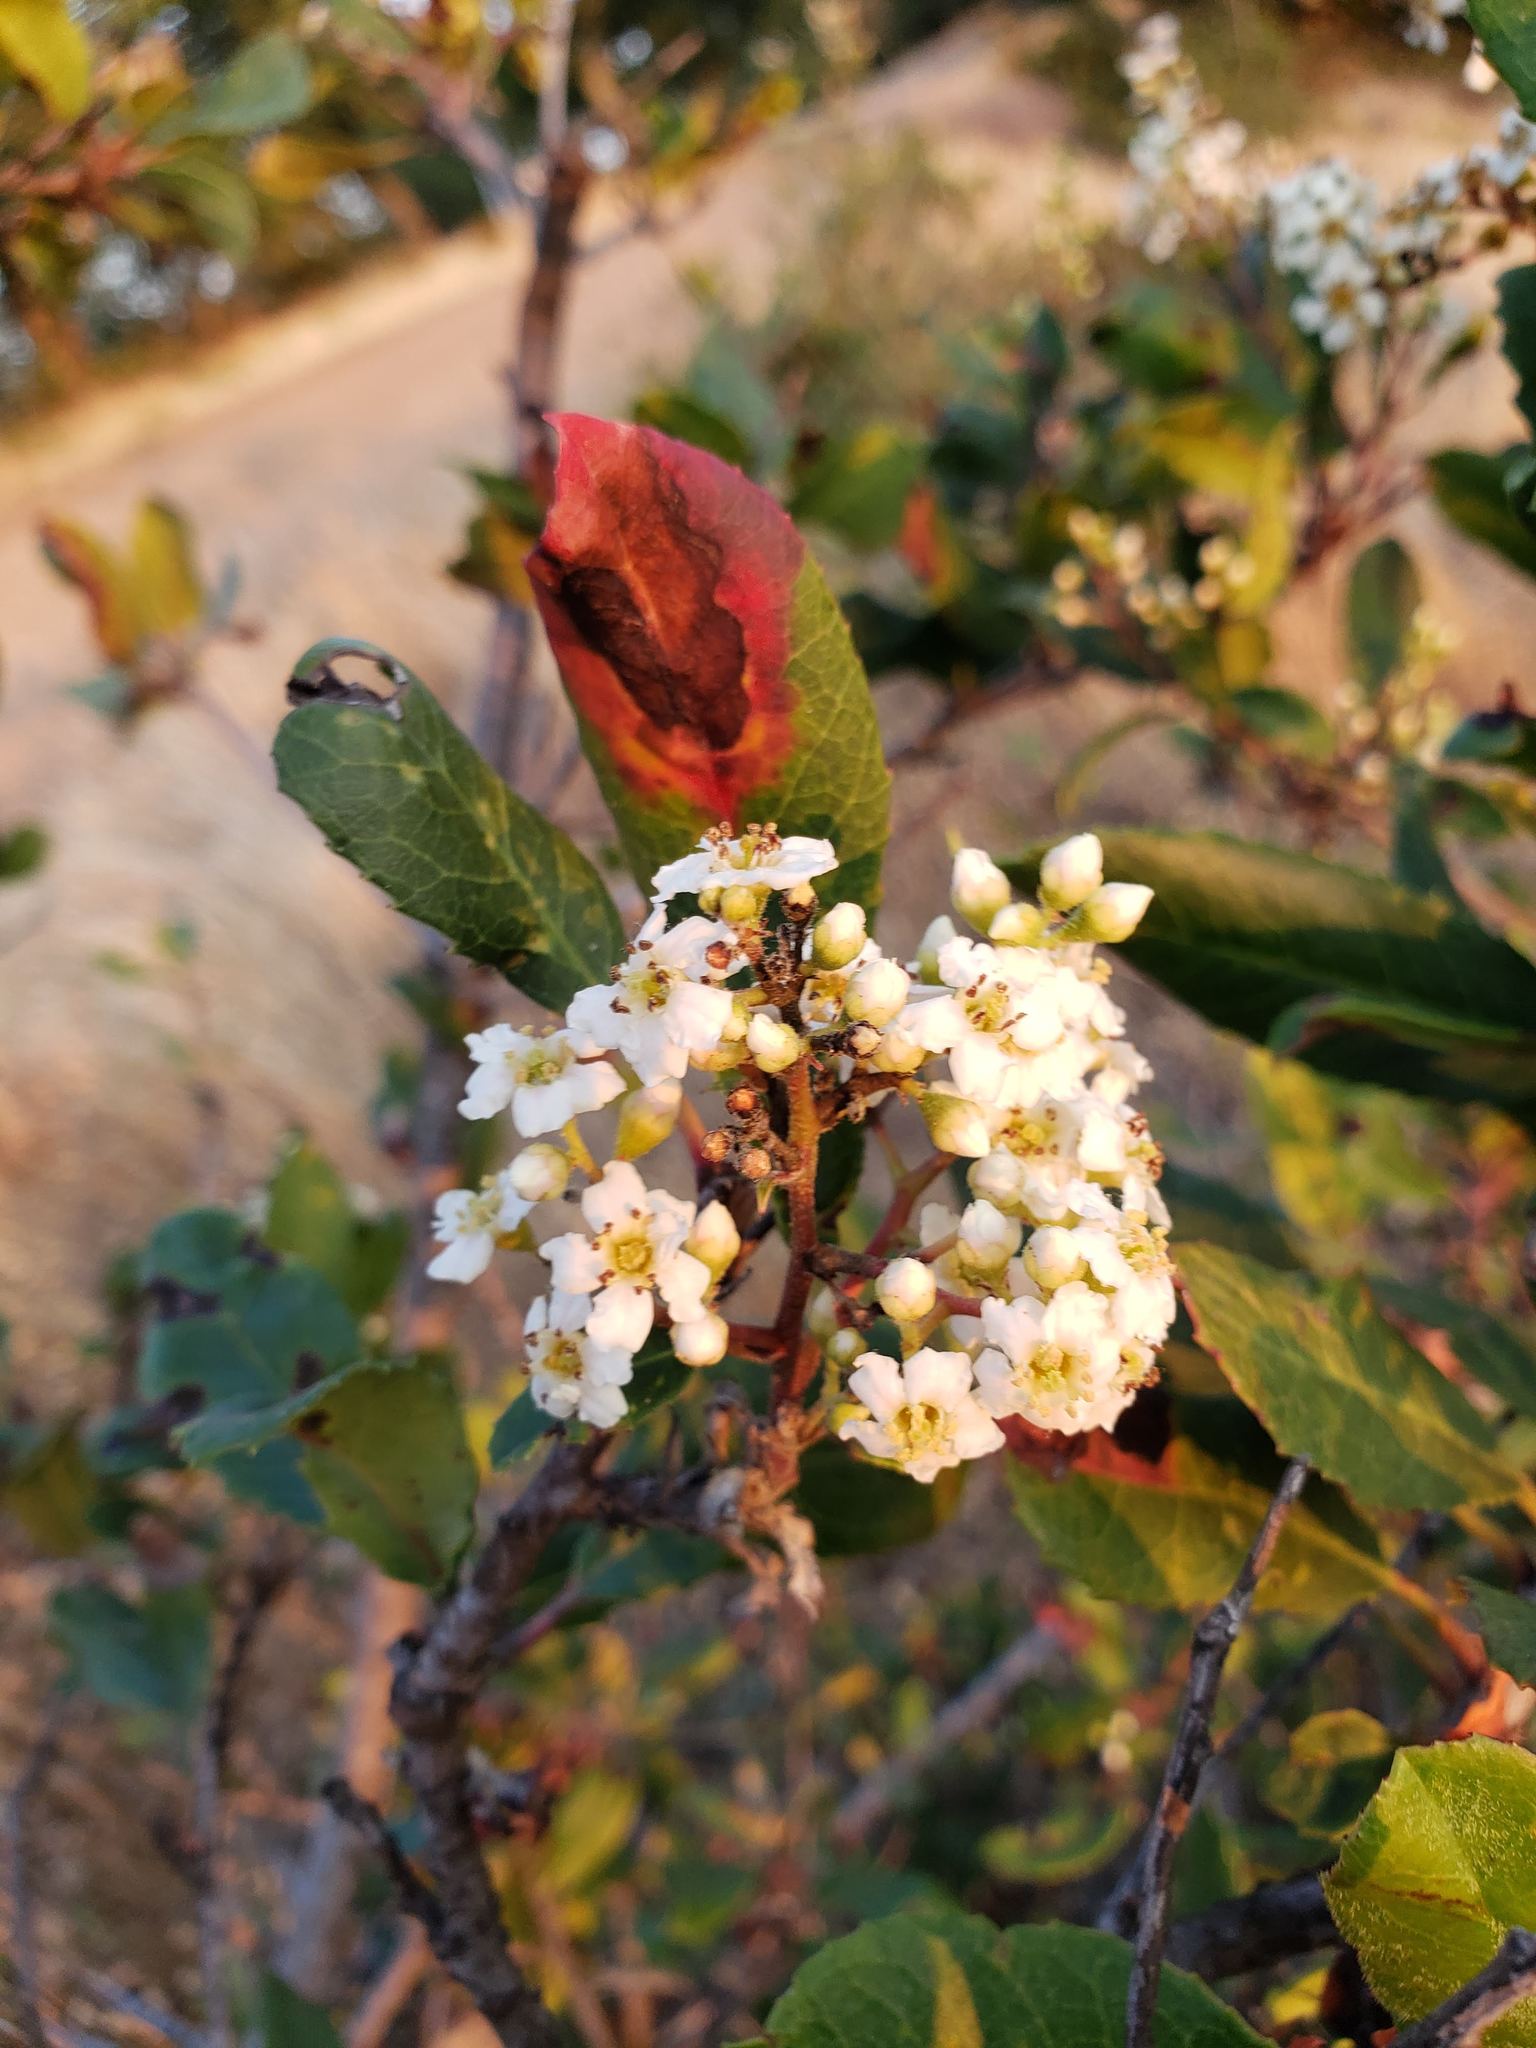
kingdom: Plantae
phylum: Tracheophyta
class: Magnoliopsida
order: Rosales
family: Rosaceae
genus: Heteromeles
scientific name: Heteromeles arbutifolia
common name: California-holly
